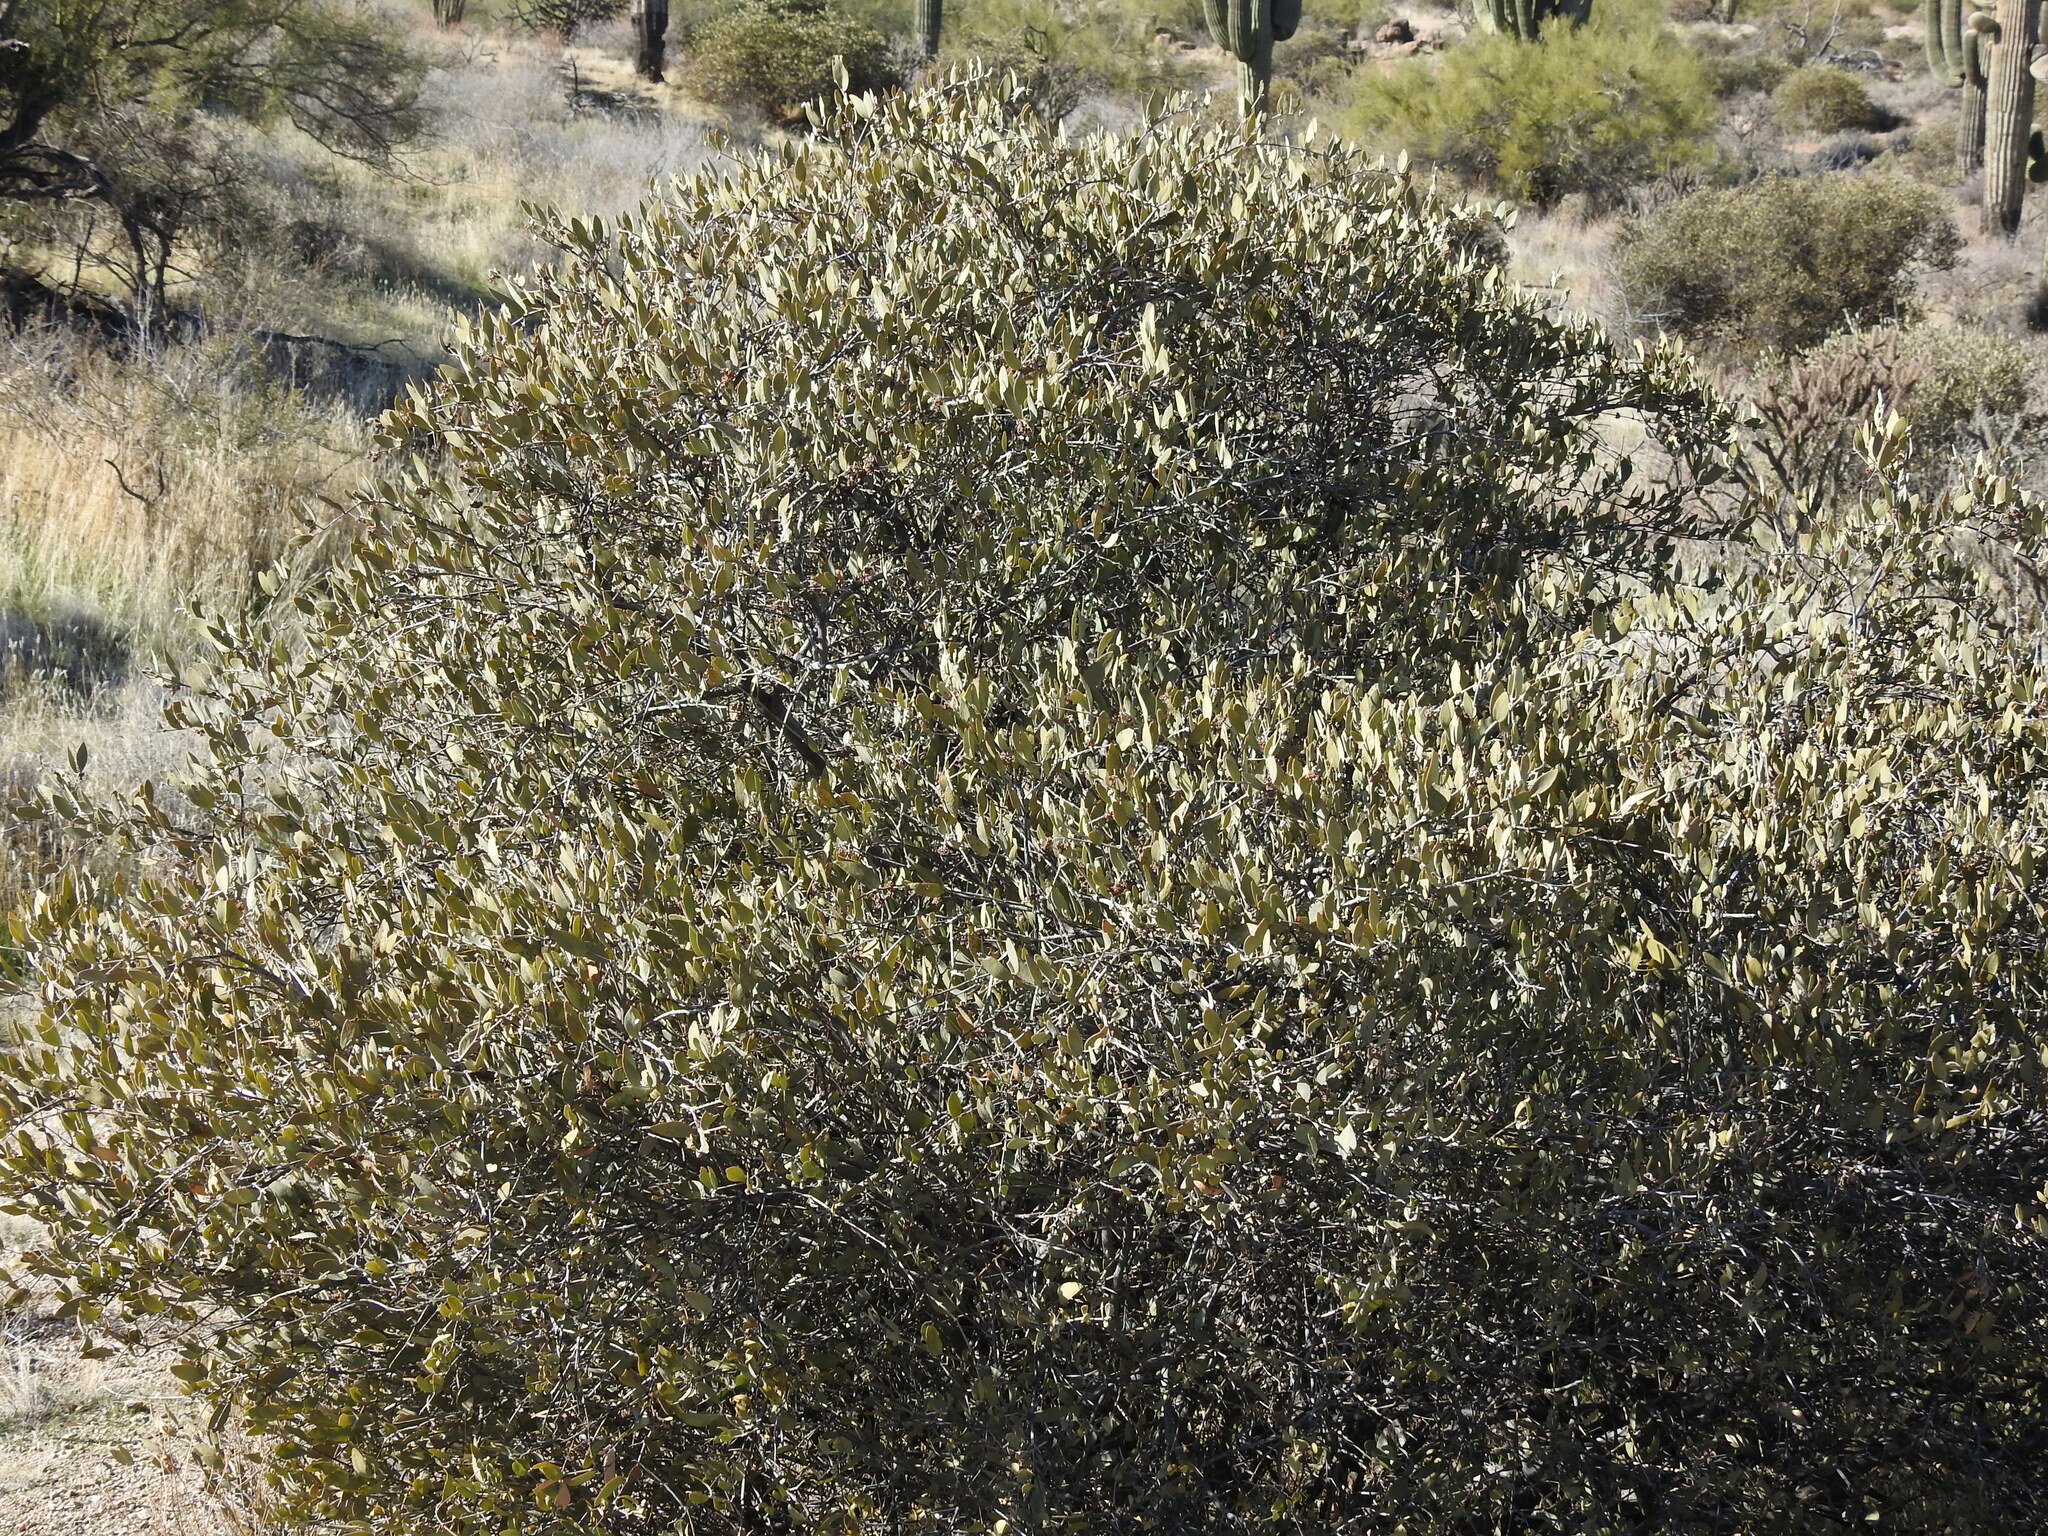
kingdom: Plantae
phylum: Tracheophyta
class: Magnoliopsida
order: Caryophyllales
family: Simmondsiaceae
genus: Simmondsia
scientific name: Simmondsia chinensis
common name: Jojoba
